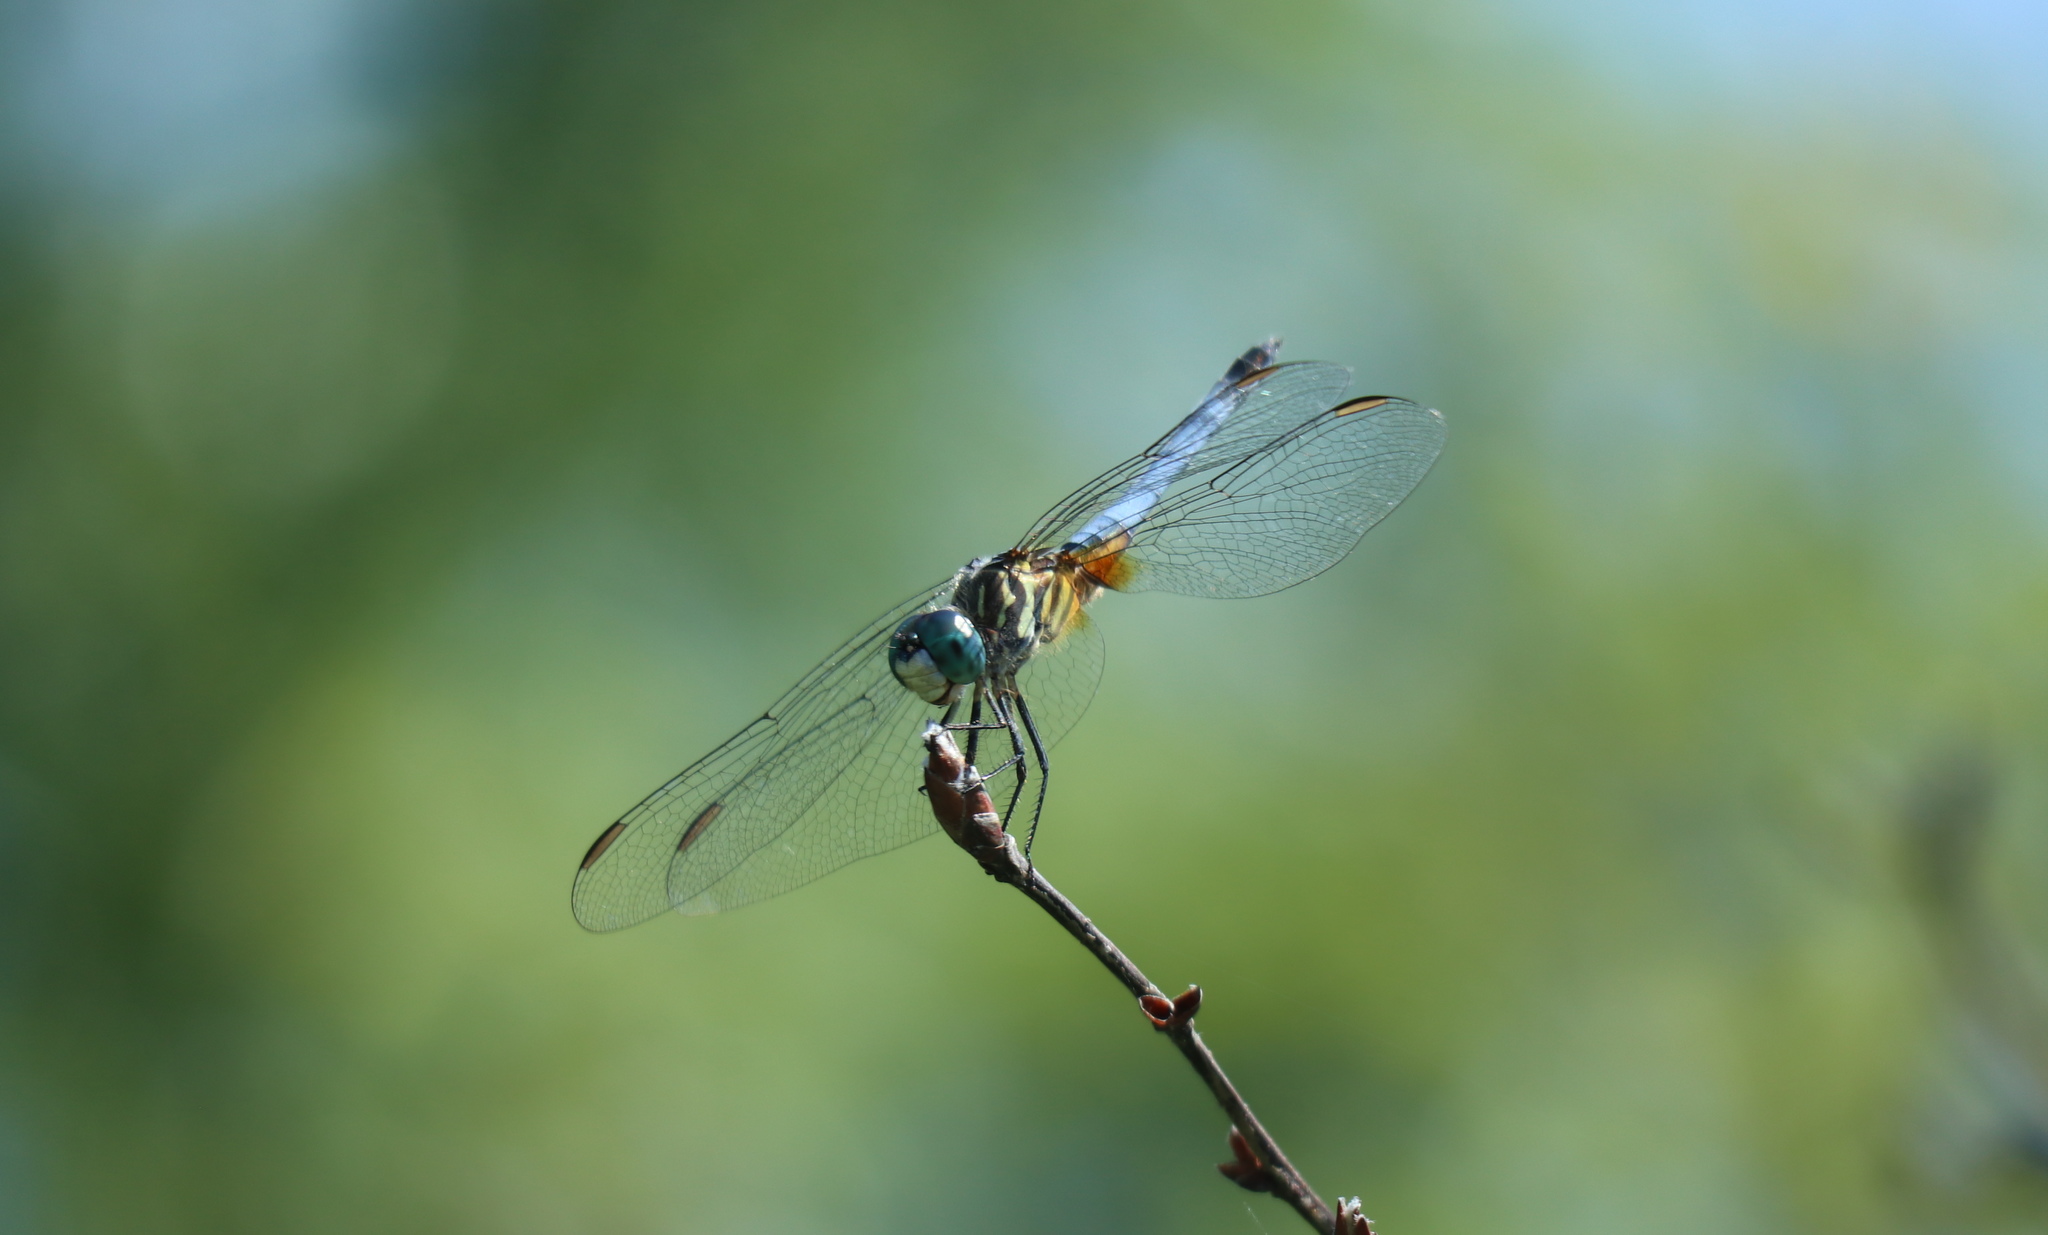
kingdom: Animalia
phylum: Arthropoda
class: Insecta
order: Odonata
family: Libellulidae
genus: Pachydiplax
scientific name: Pachydiplax longipennis
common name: Blue dasher
